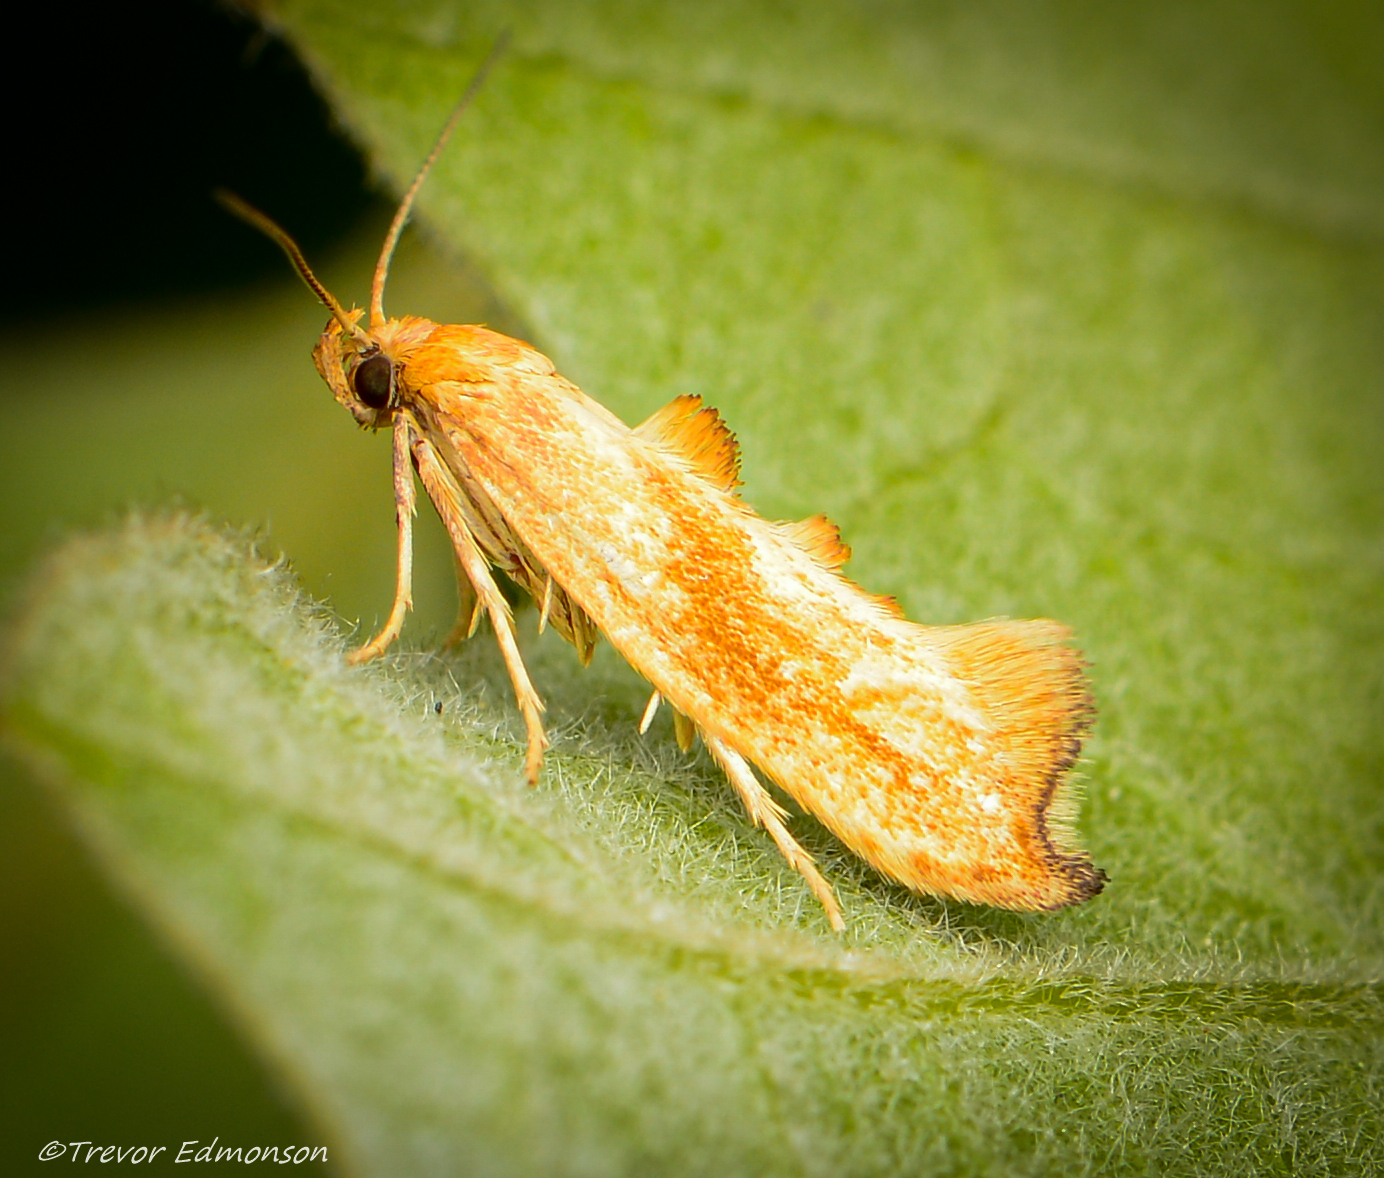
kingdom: Animalia
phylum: Arthropoda
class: Insecta
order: Lepidoptera
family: Epermeniidae
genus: Epermenia
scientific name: Epermenia imperialella
